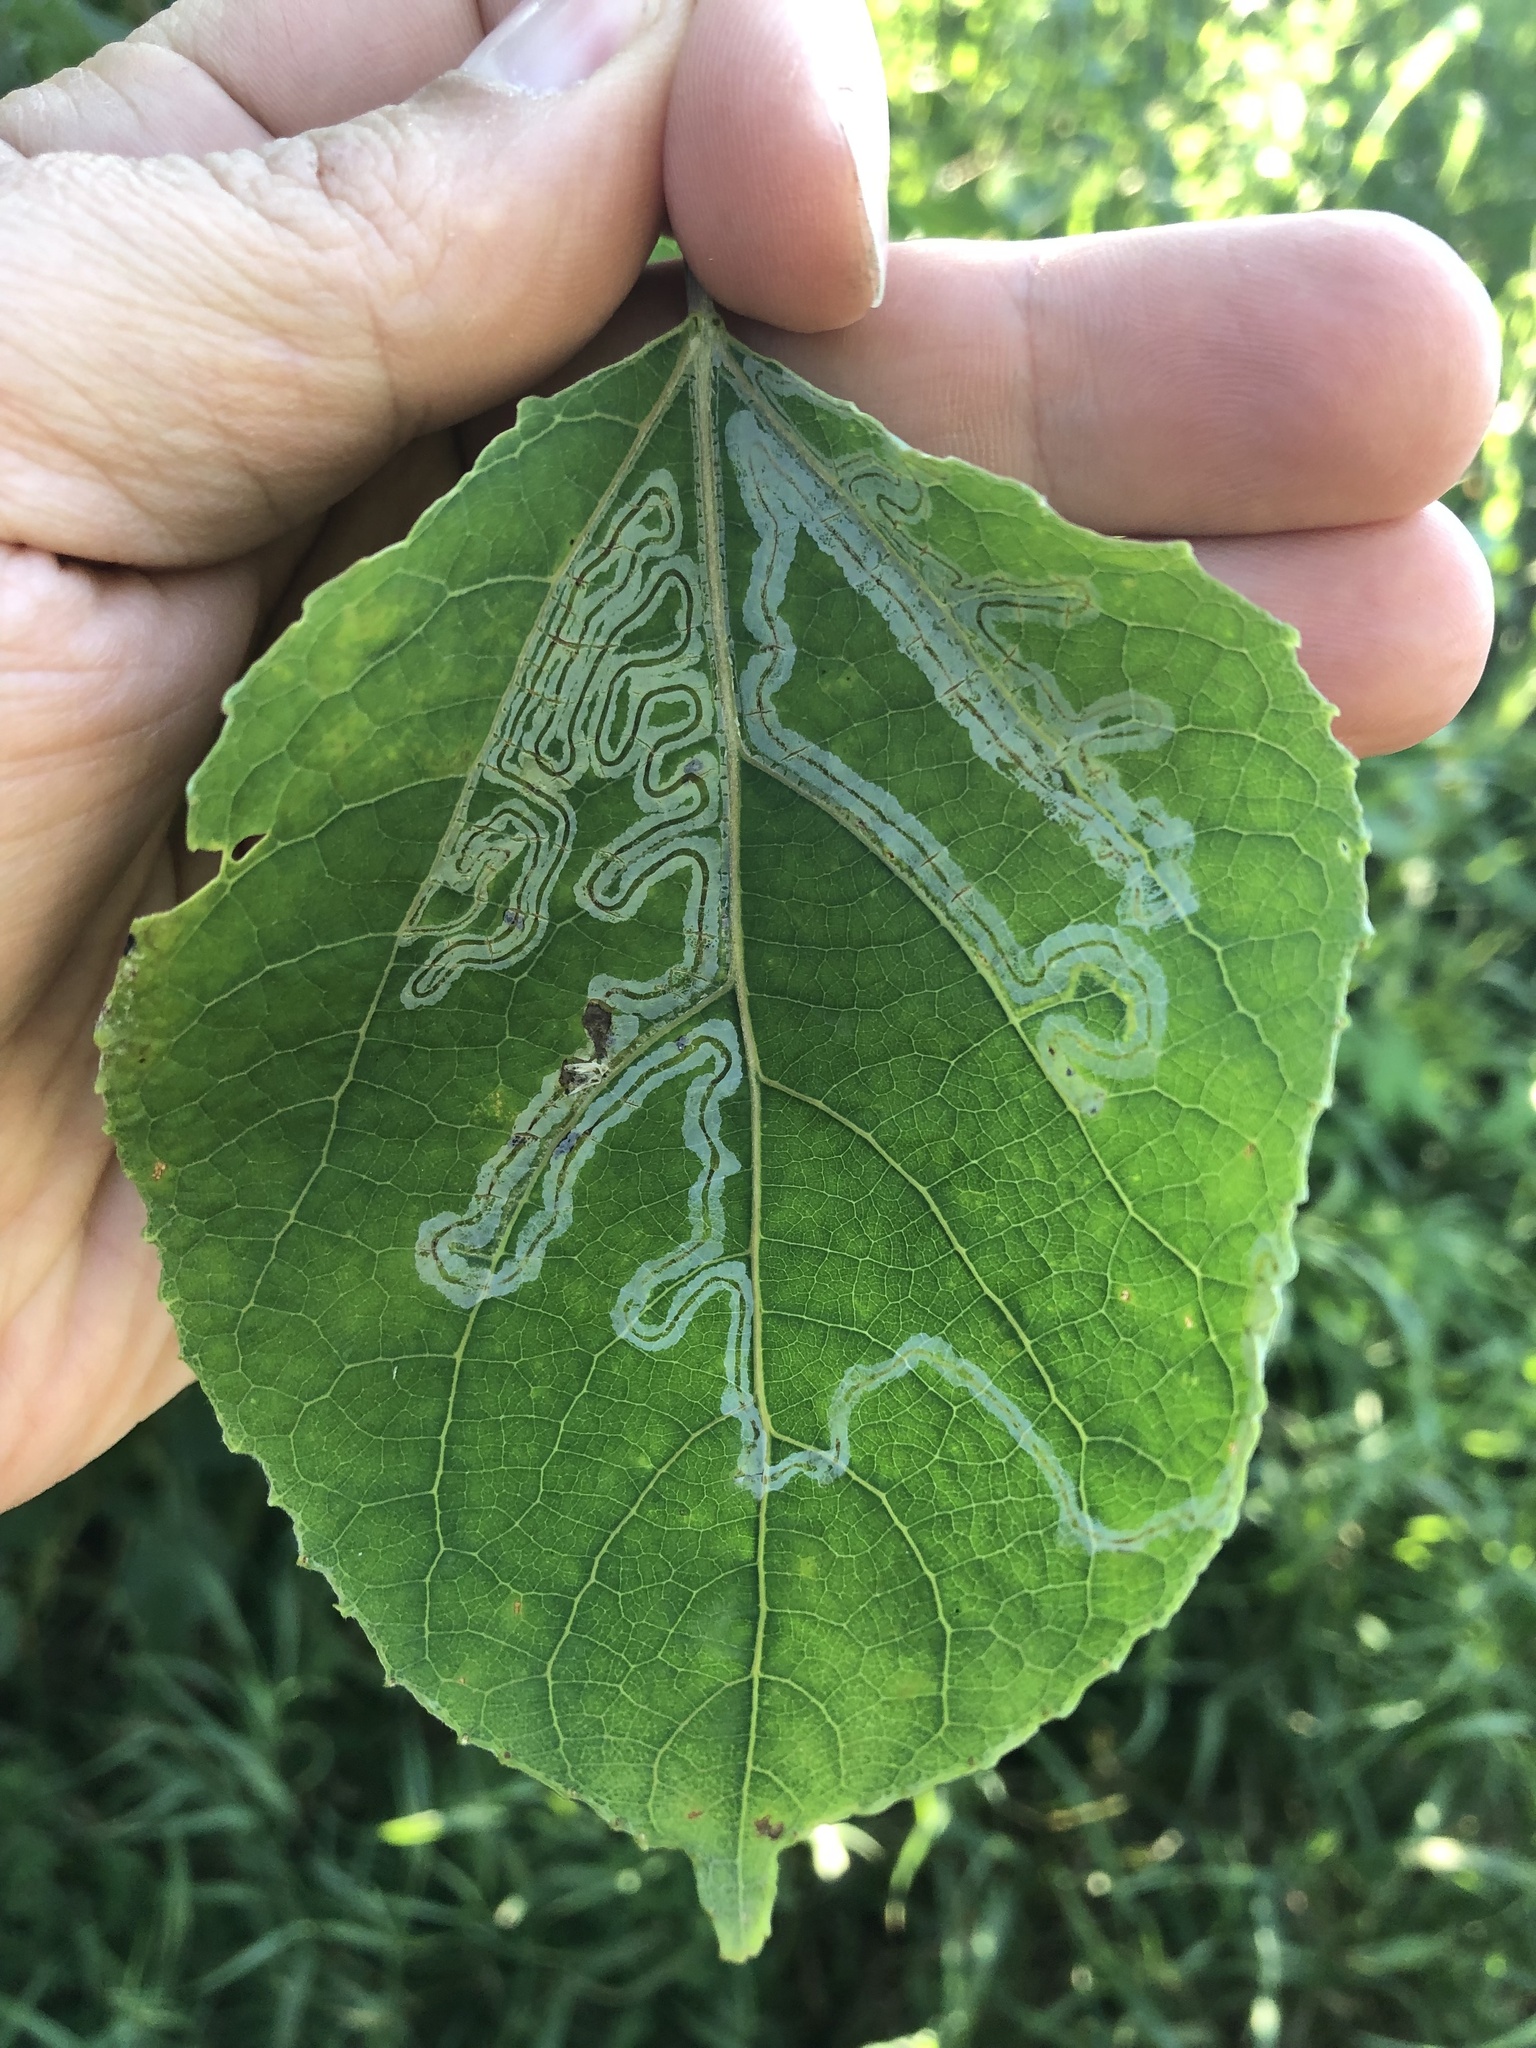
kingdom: Animalia
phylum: Arthropoda
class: Insecta
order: Lepidoptera
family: Gracillariidae
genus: Phyllocnistis
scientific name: Phyllocnistis populiella
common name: Aspen serpentine leafminer moth
